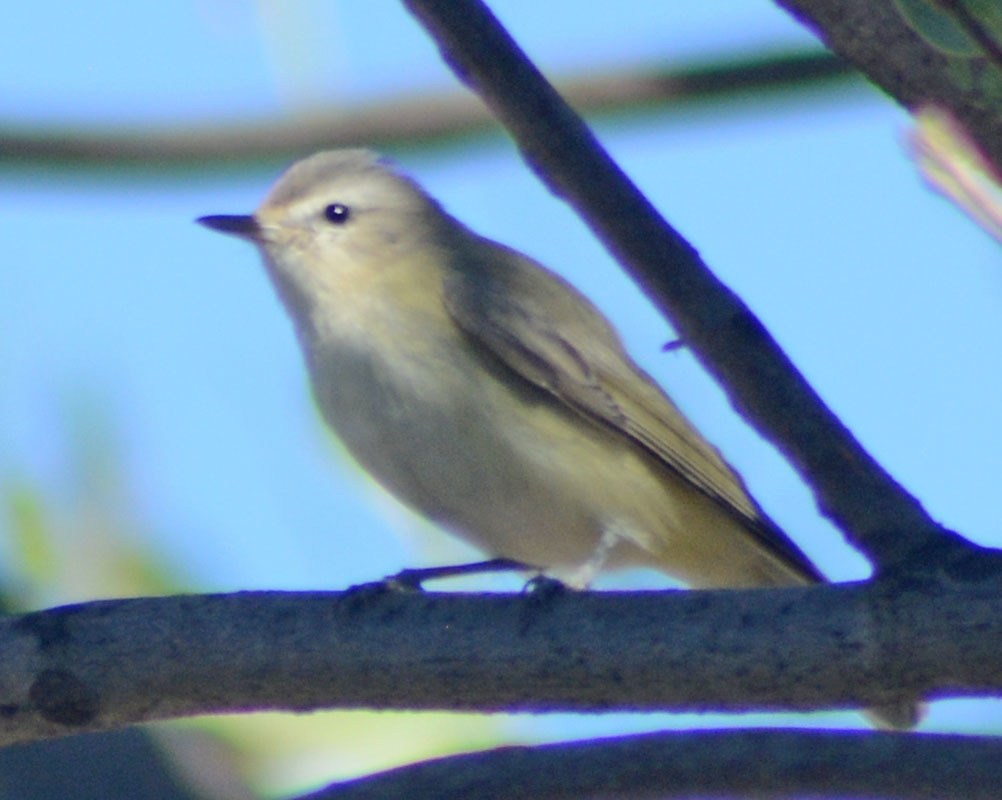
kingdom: Animalia
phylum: Chordata
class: Aves
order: Passeriformes
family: Vireonidae
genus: Vireo
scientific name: Vireo gilvus
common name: Warbling vireo
